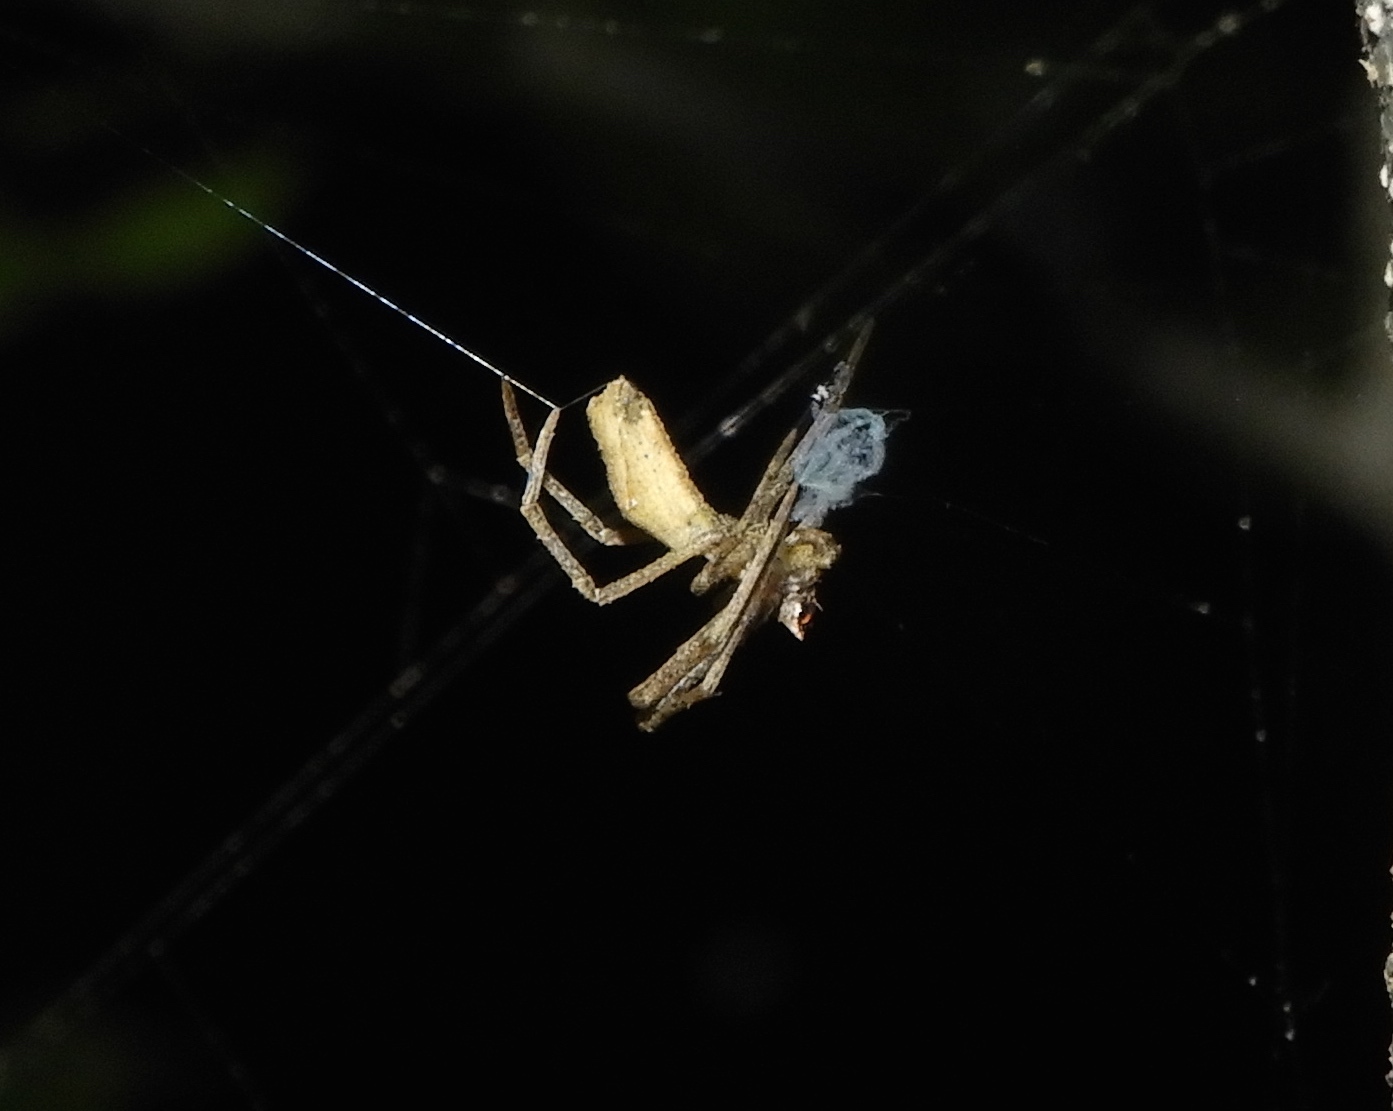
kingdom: Animalia
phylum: Arthropoda
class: Arachnida
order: Araneae
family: Deinopidae
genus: Deinopis
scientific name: Deinopis aurita
